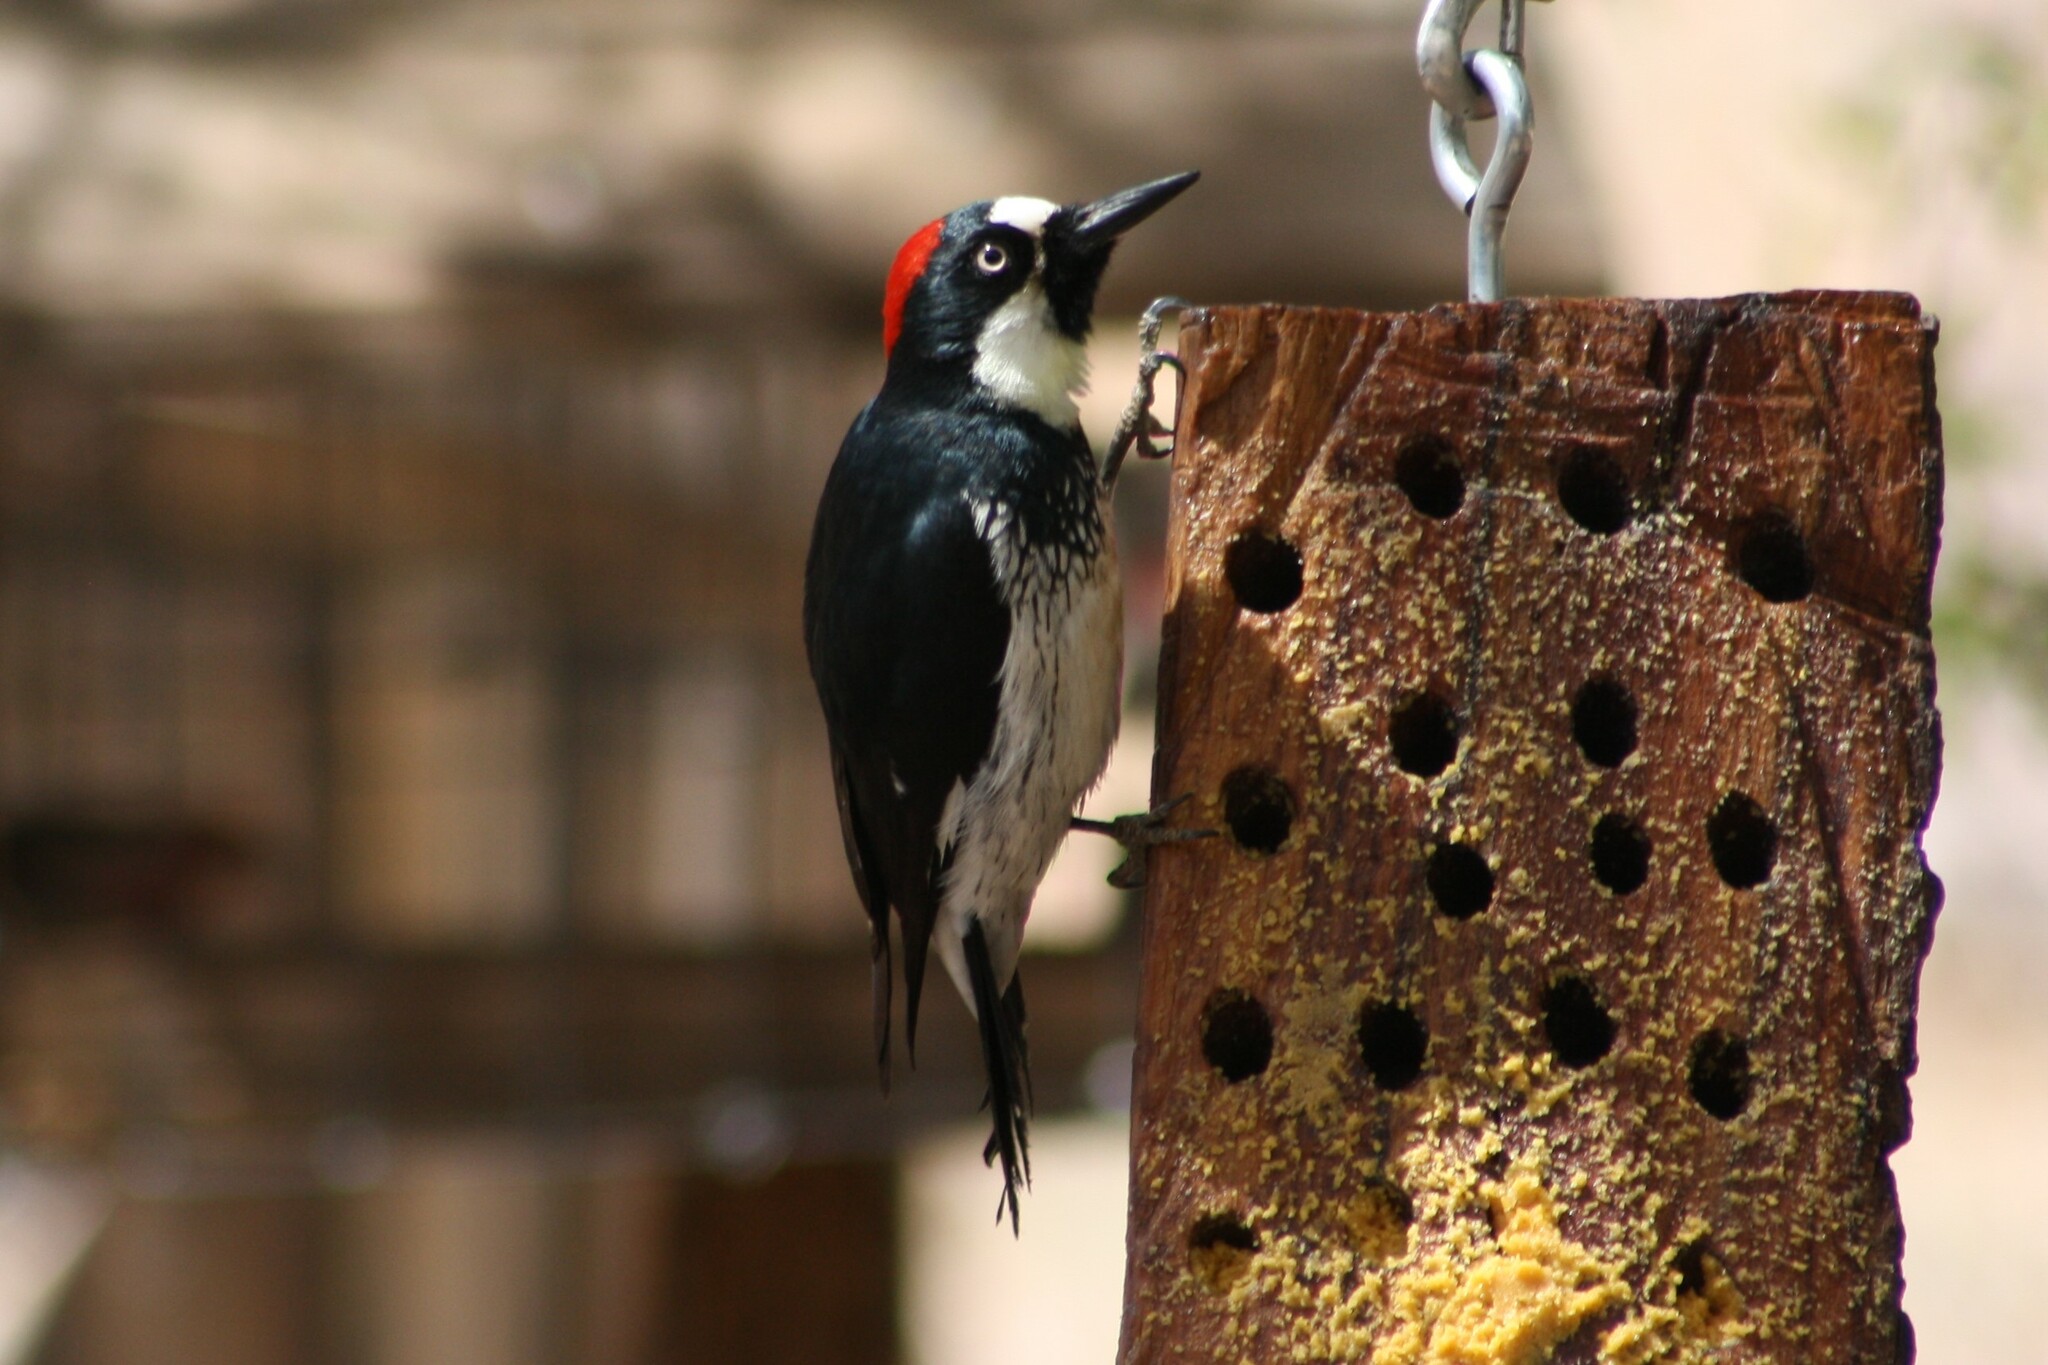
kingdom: Animalia
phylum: Chordata
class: Aves
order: Piciformes
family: Picidae
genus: Melanerpes
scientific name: Melanerpes formicivorus
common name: Acorn woodpecker
